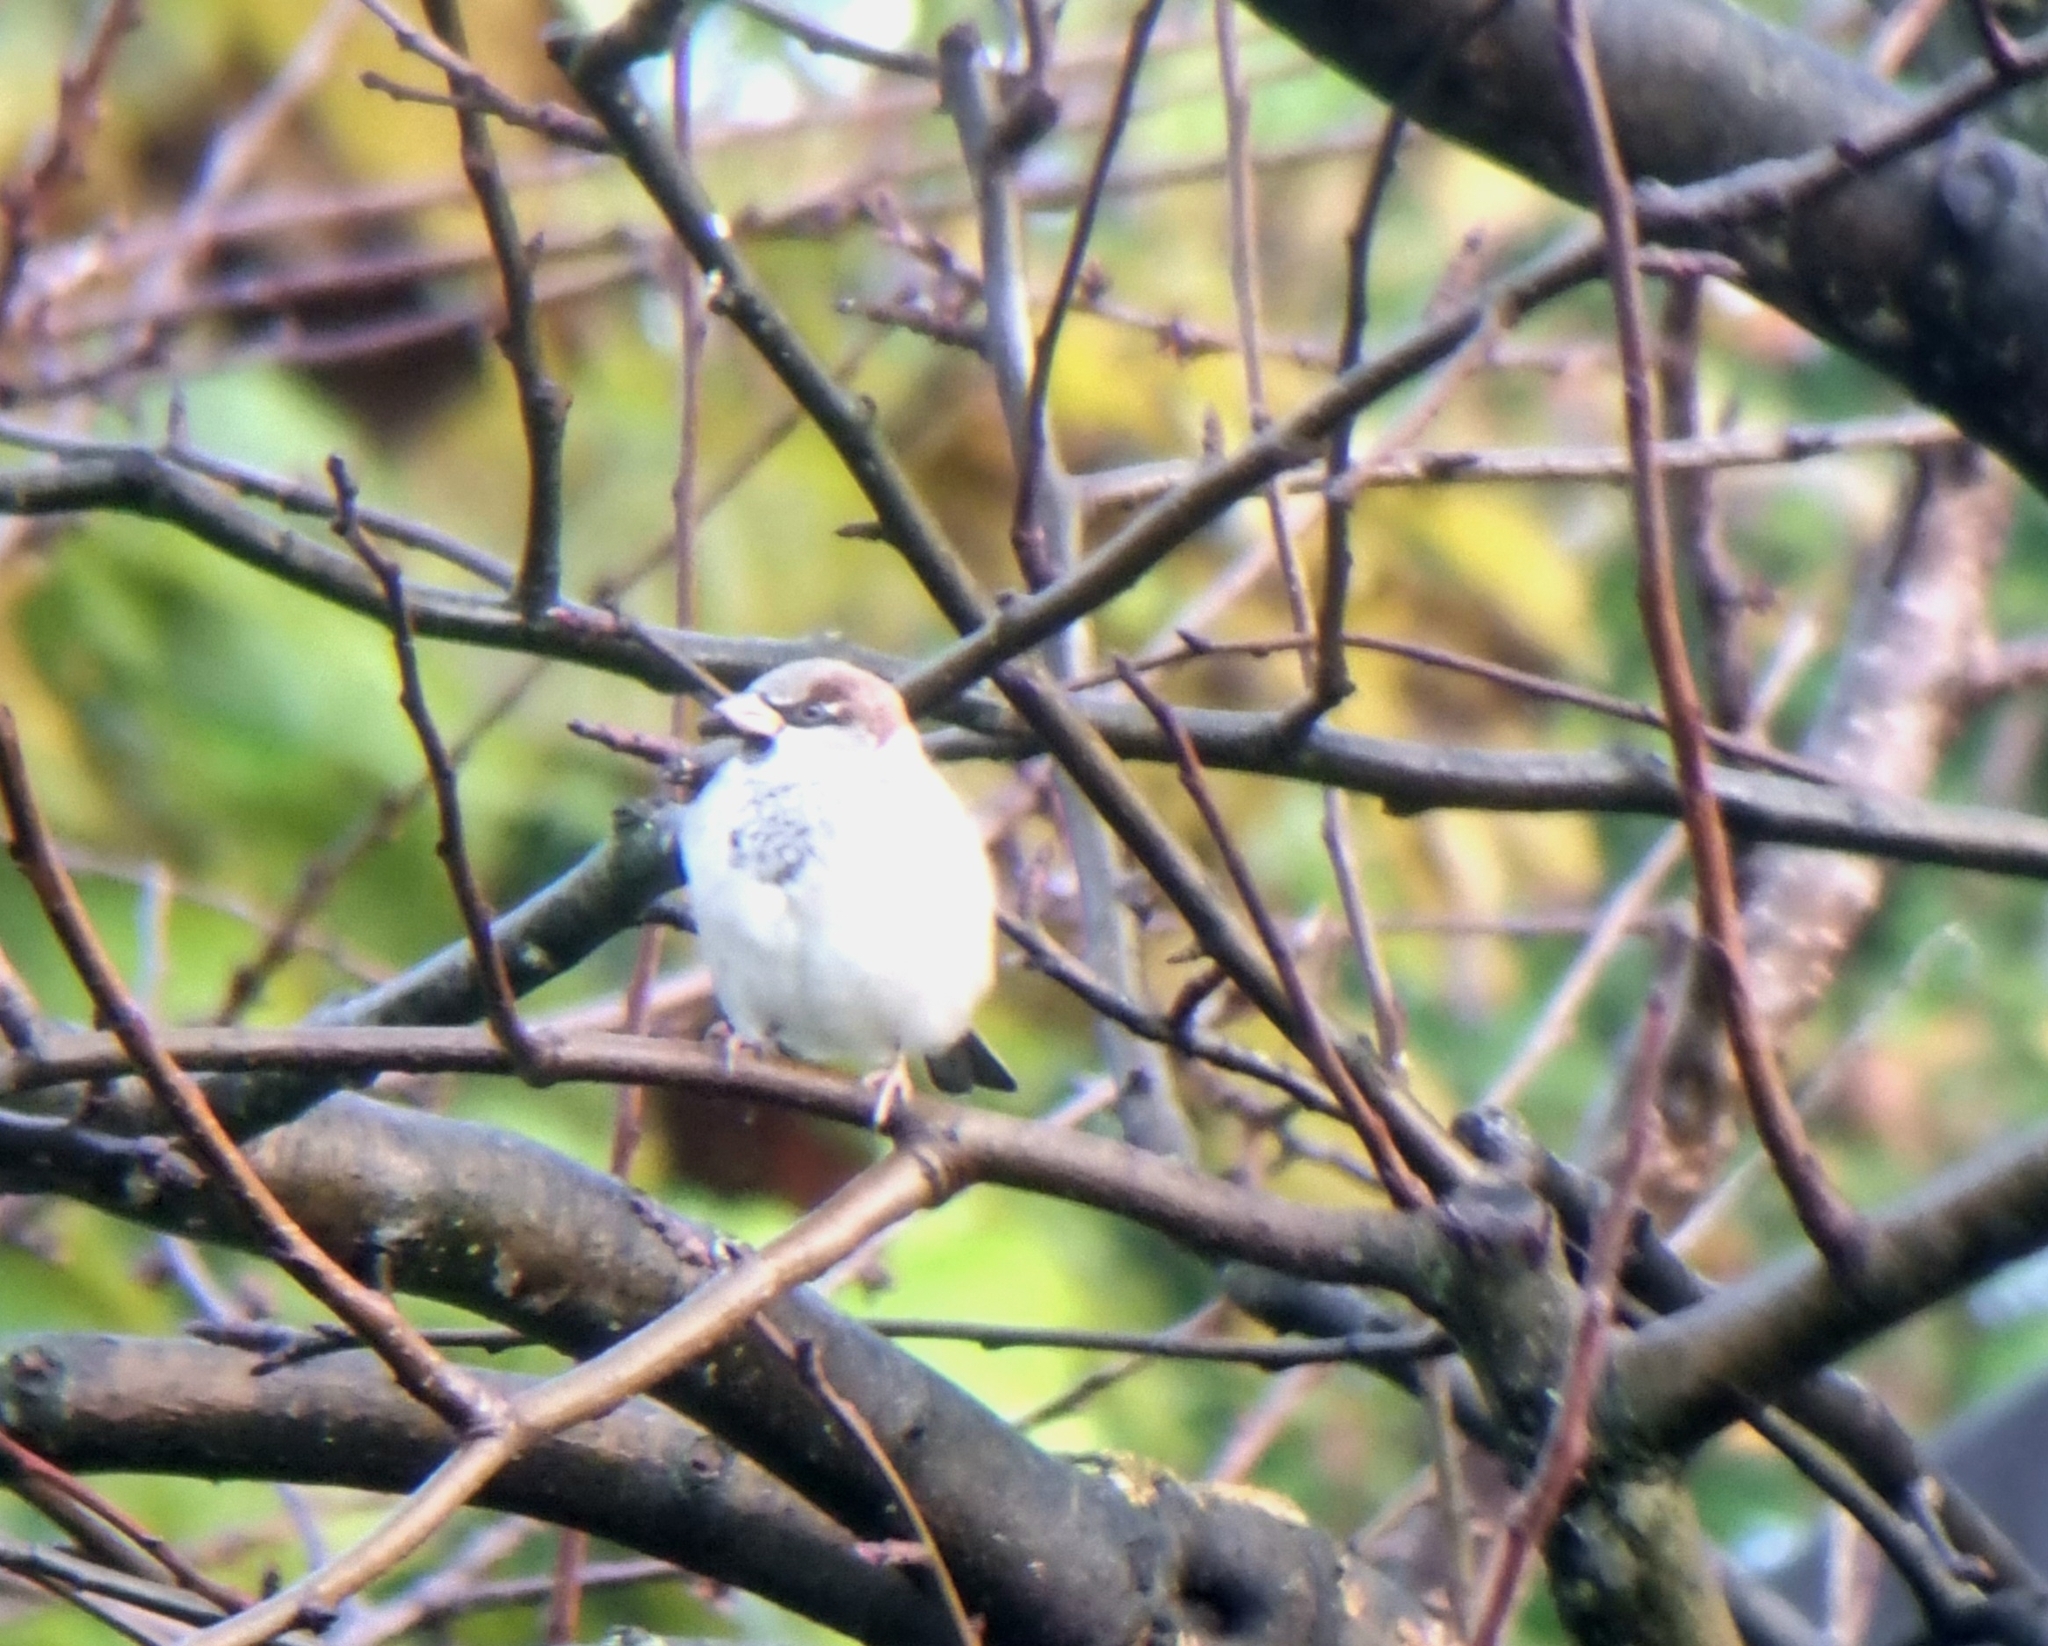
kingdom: Animalia
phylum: Chordata
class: Aves
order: Passeriformes
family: Passeridae
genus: Passer
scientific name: Passer domesticus
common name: House sparrow
